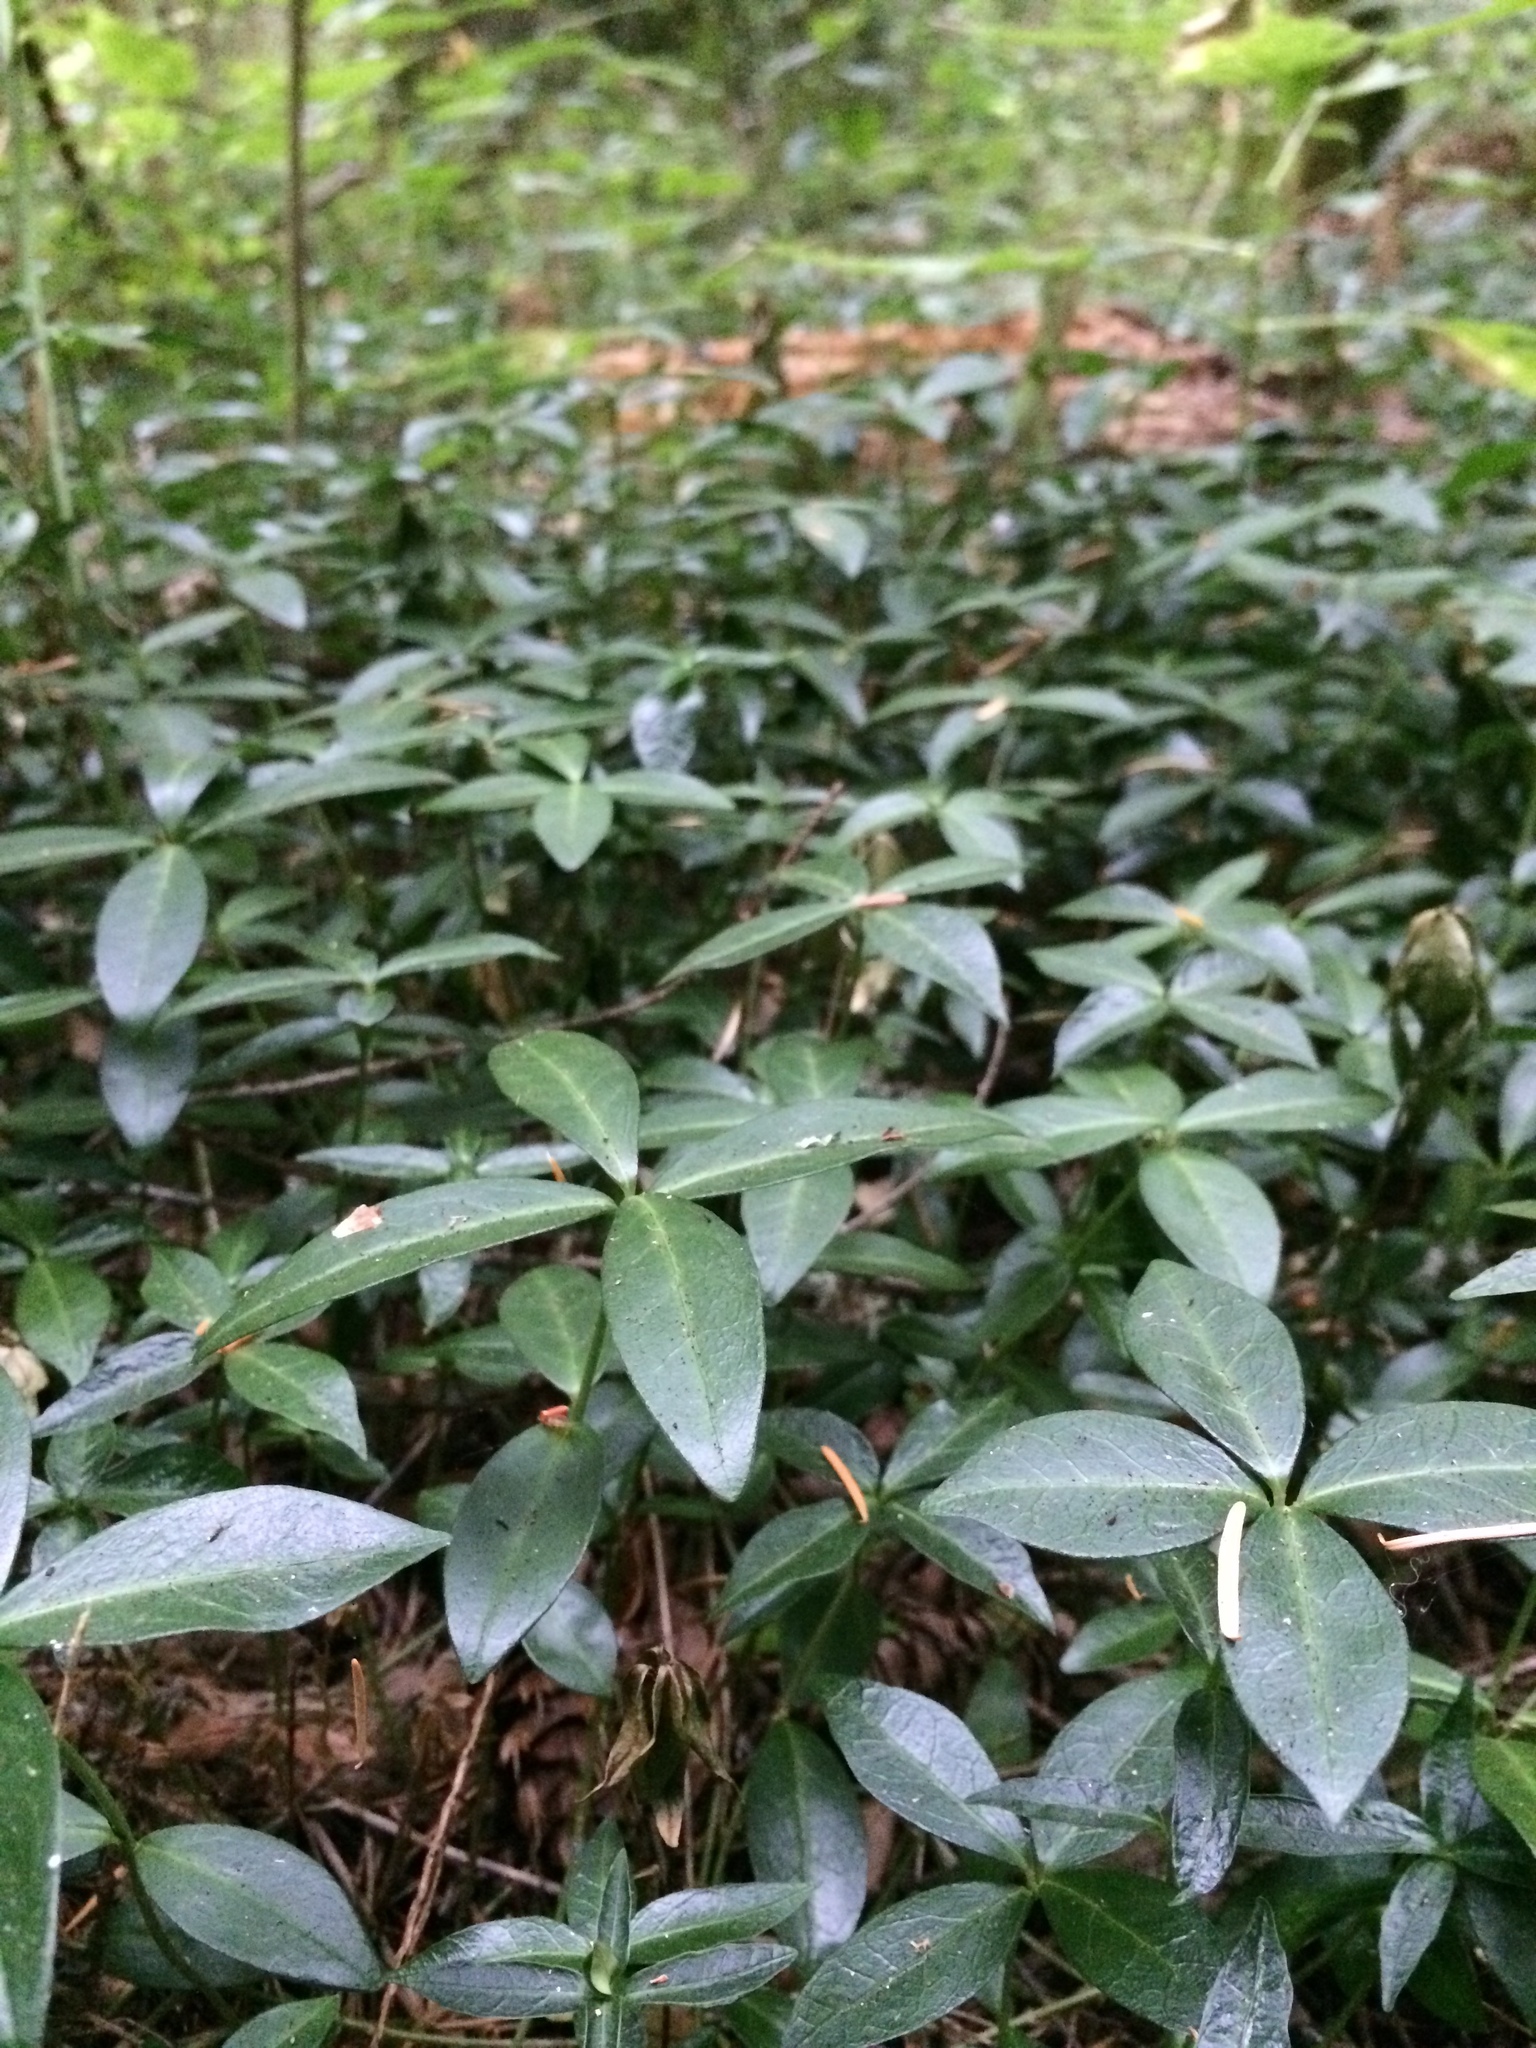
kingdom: Plantae
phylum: Tracheophyta
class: Magnoliopsida
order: Gentianales
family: Apocynaceae
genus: Vinca
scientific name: Vinca minor
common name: Lesser periwinkle
